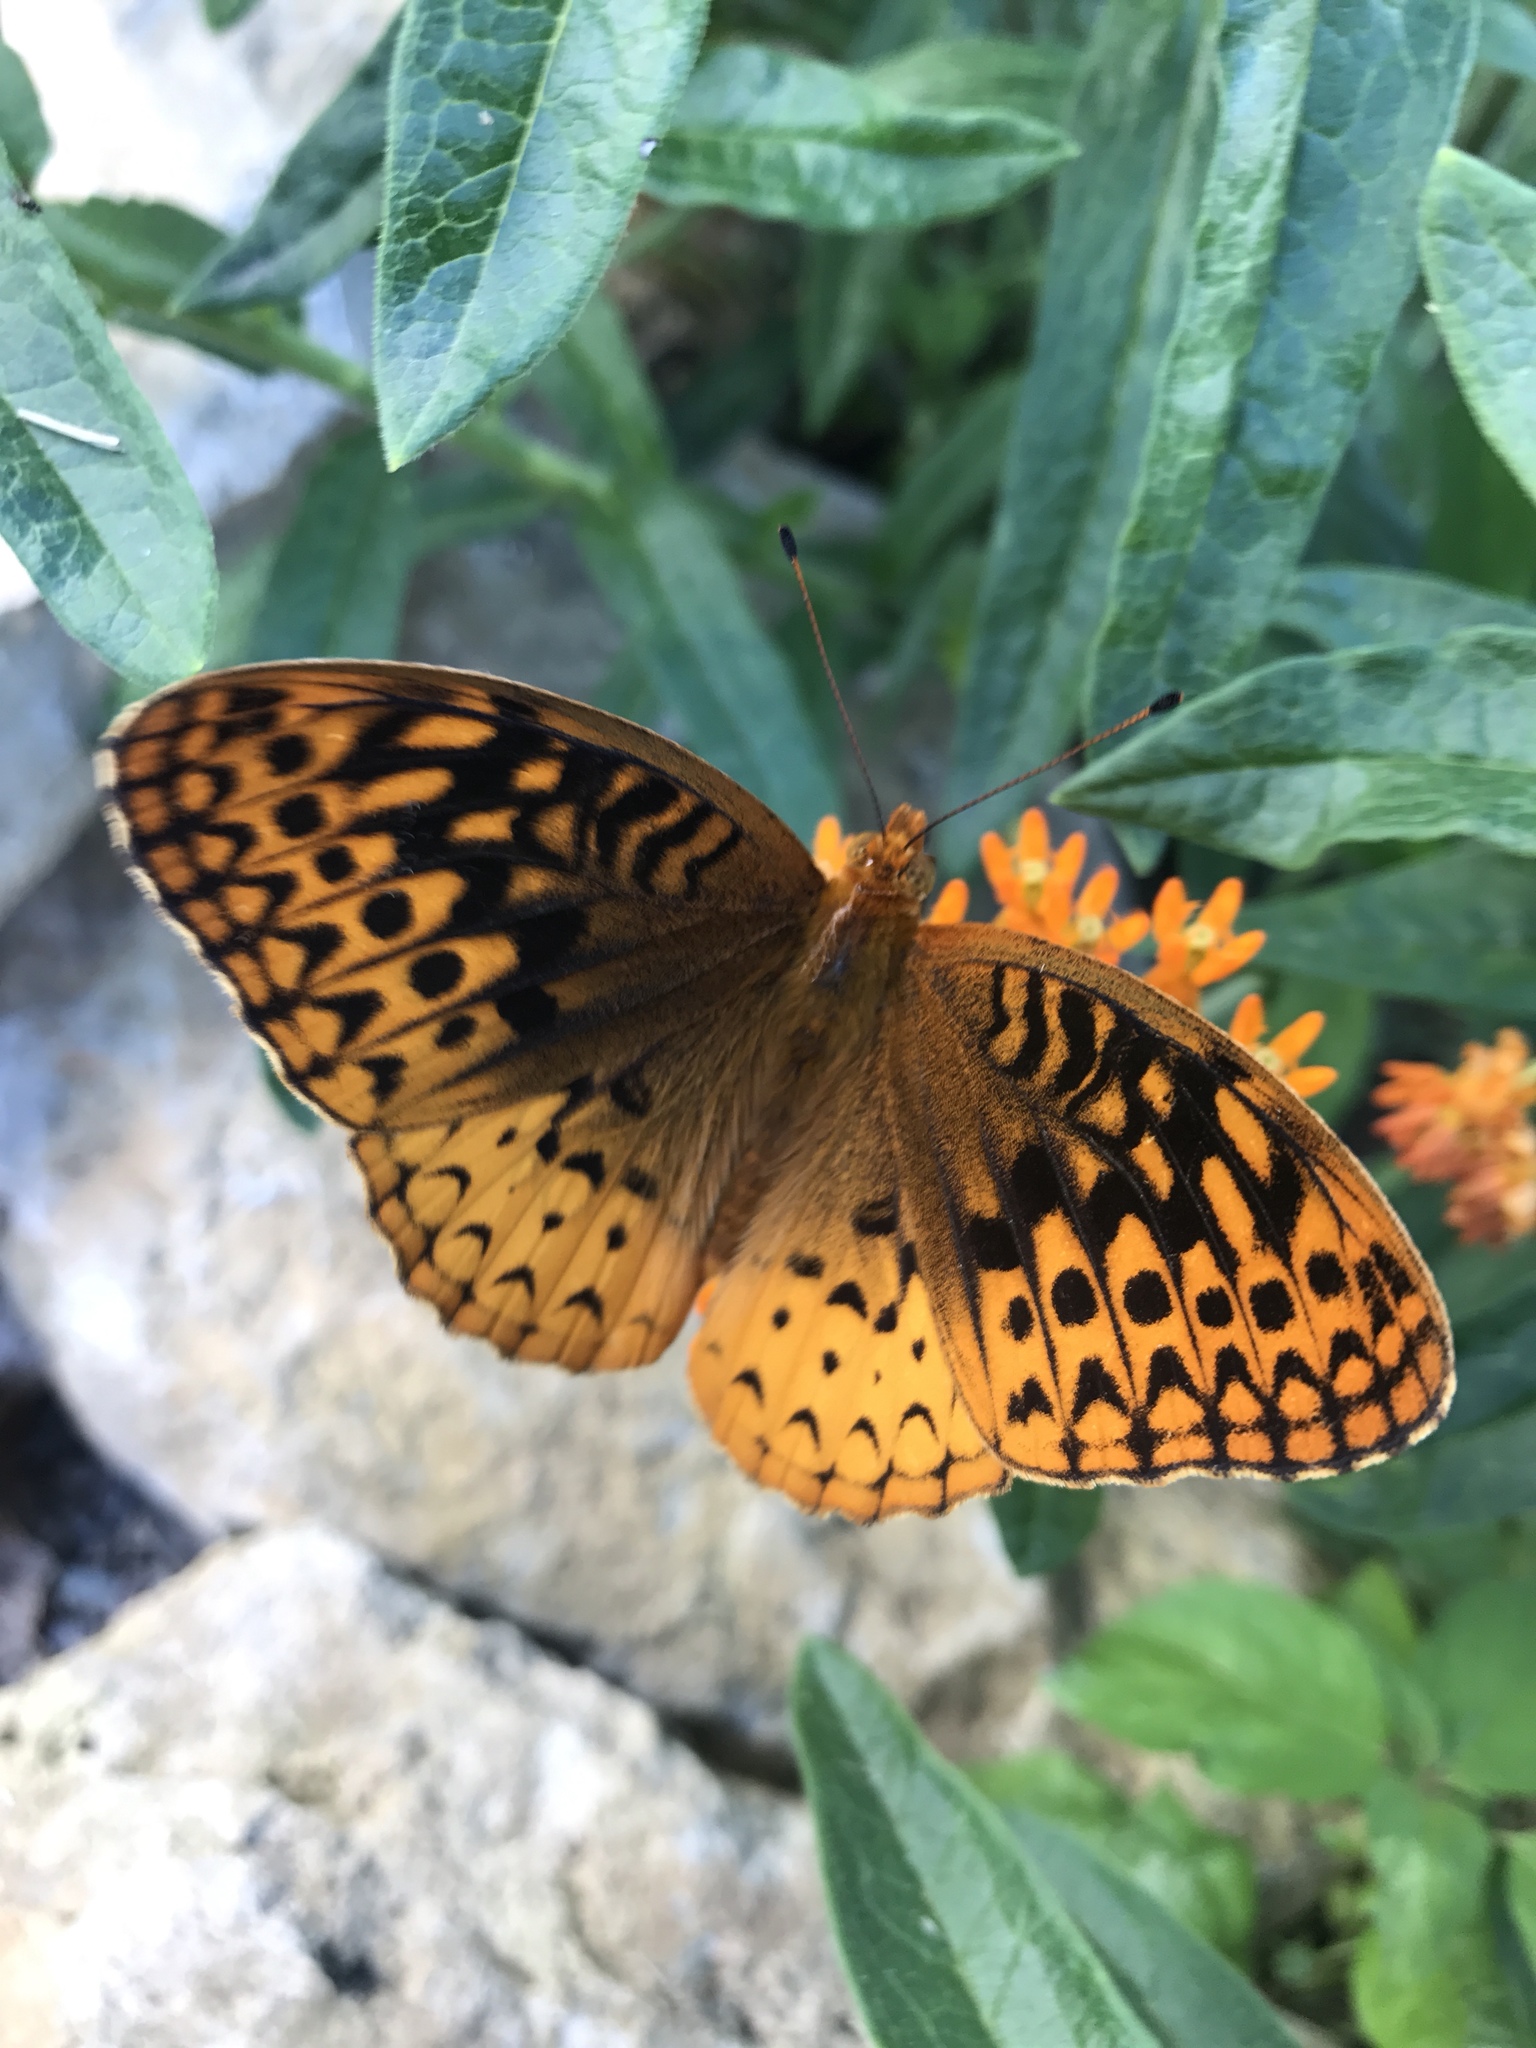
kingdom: Animalia
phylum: Arthropoda
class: Insecta
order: Lepidoptera
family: Nymphalidae
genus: Speyeria
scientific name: Speyeria cybele
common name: Great spangled fritillary
